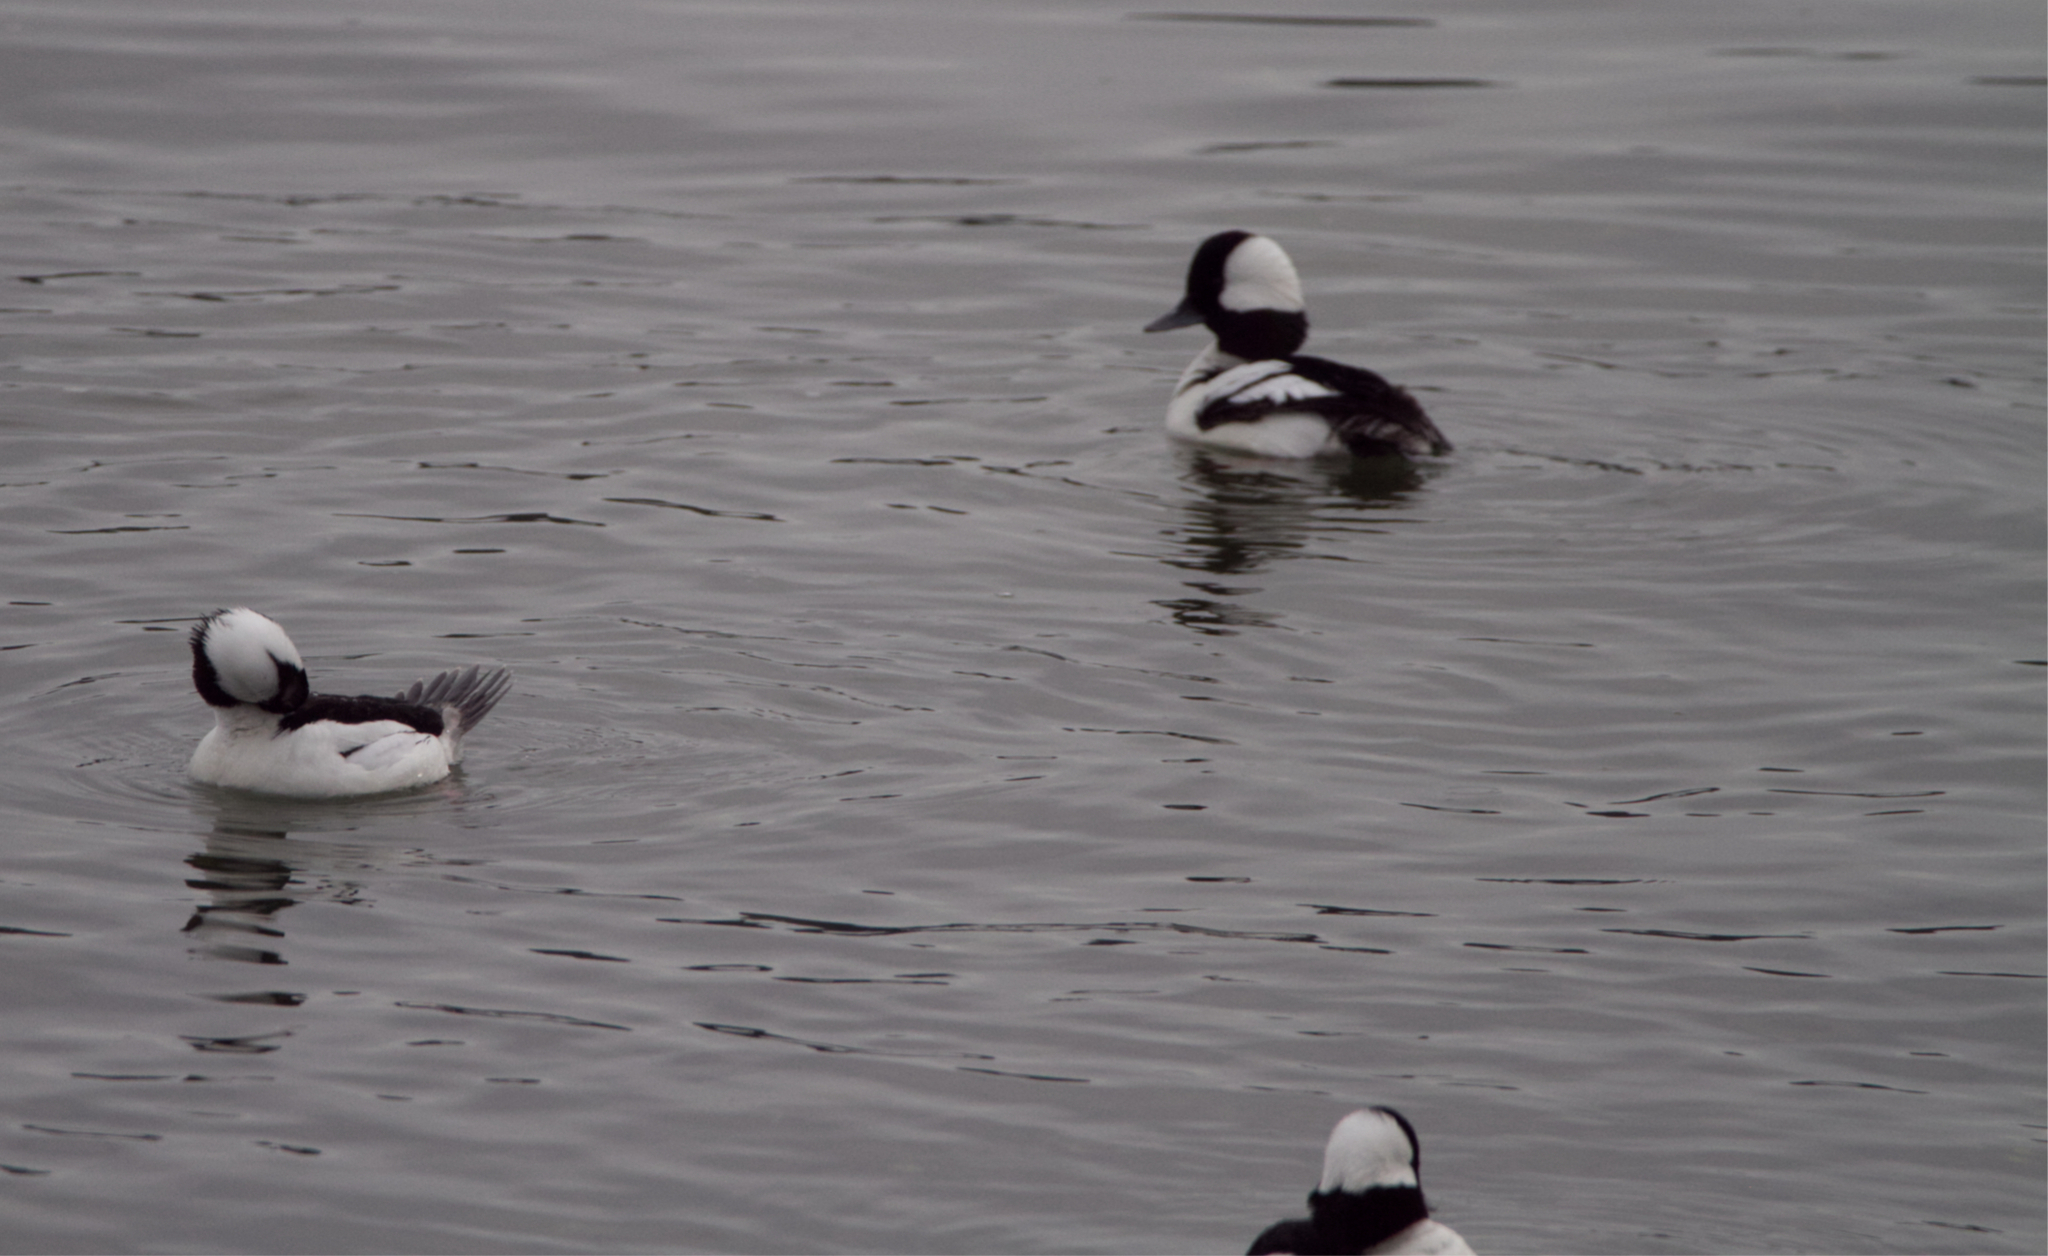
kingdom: Animalia
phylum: Chordata
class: Aves
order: Anseriformes
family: Anatidae
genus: Bucephala
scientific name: Bucephala albeola
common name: Bufflehead
